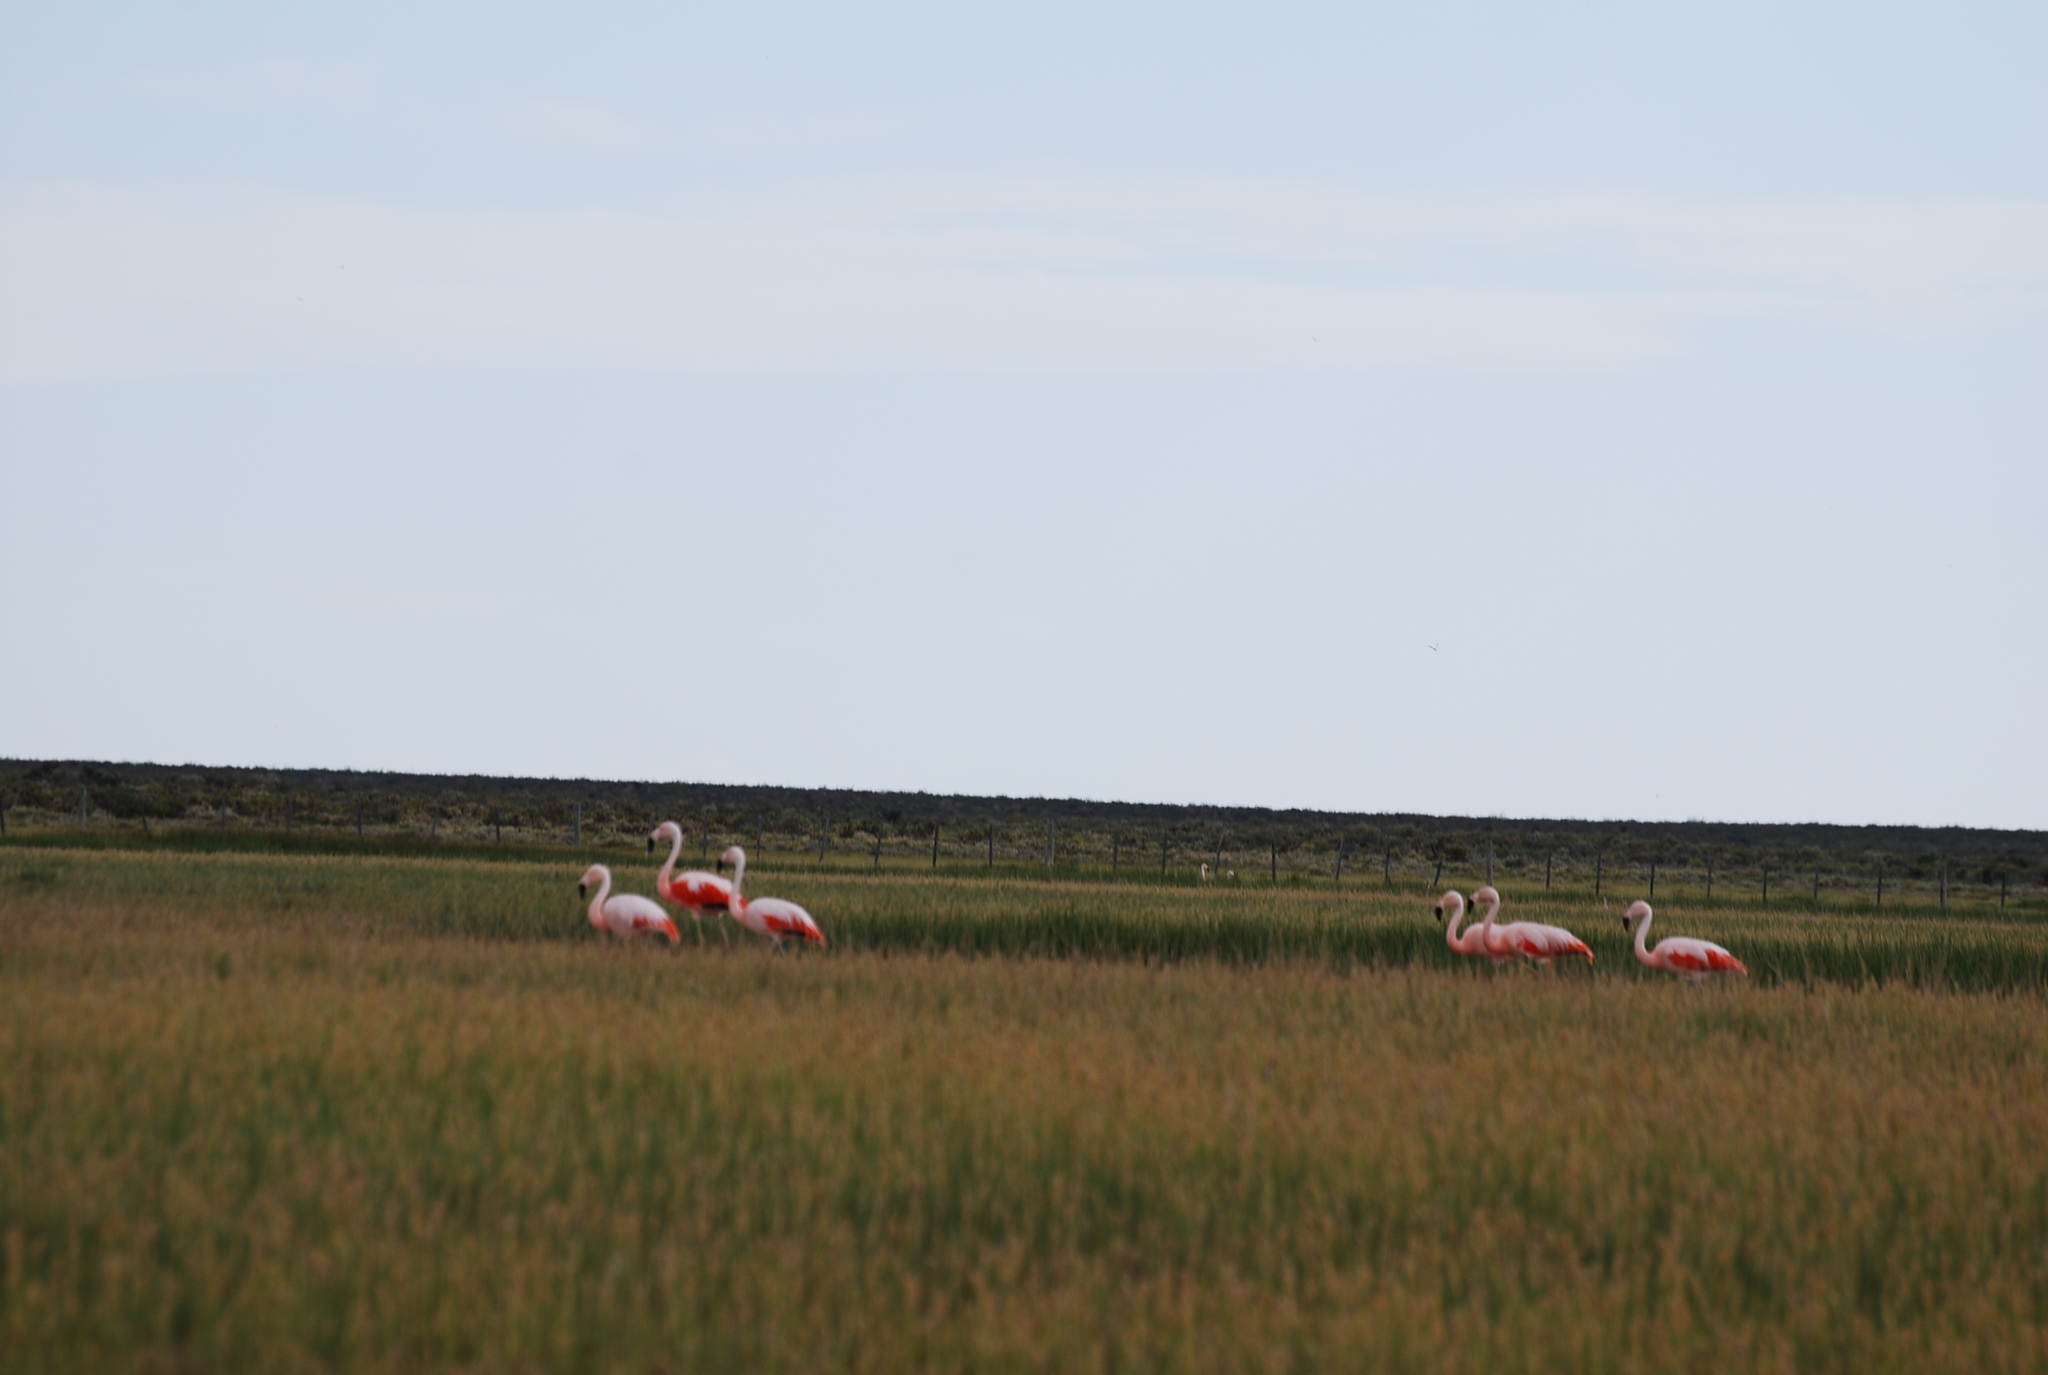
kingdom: Animalia
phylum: Chordata
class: Aves
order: Phoenicopteriformes
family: Phoenicopteridae
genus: Phoenicopterus
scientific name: Phoenicopterus chilensis
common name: Chilean flamingo
